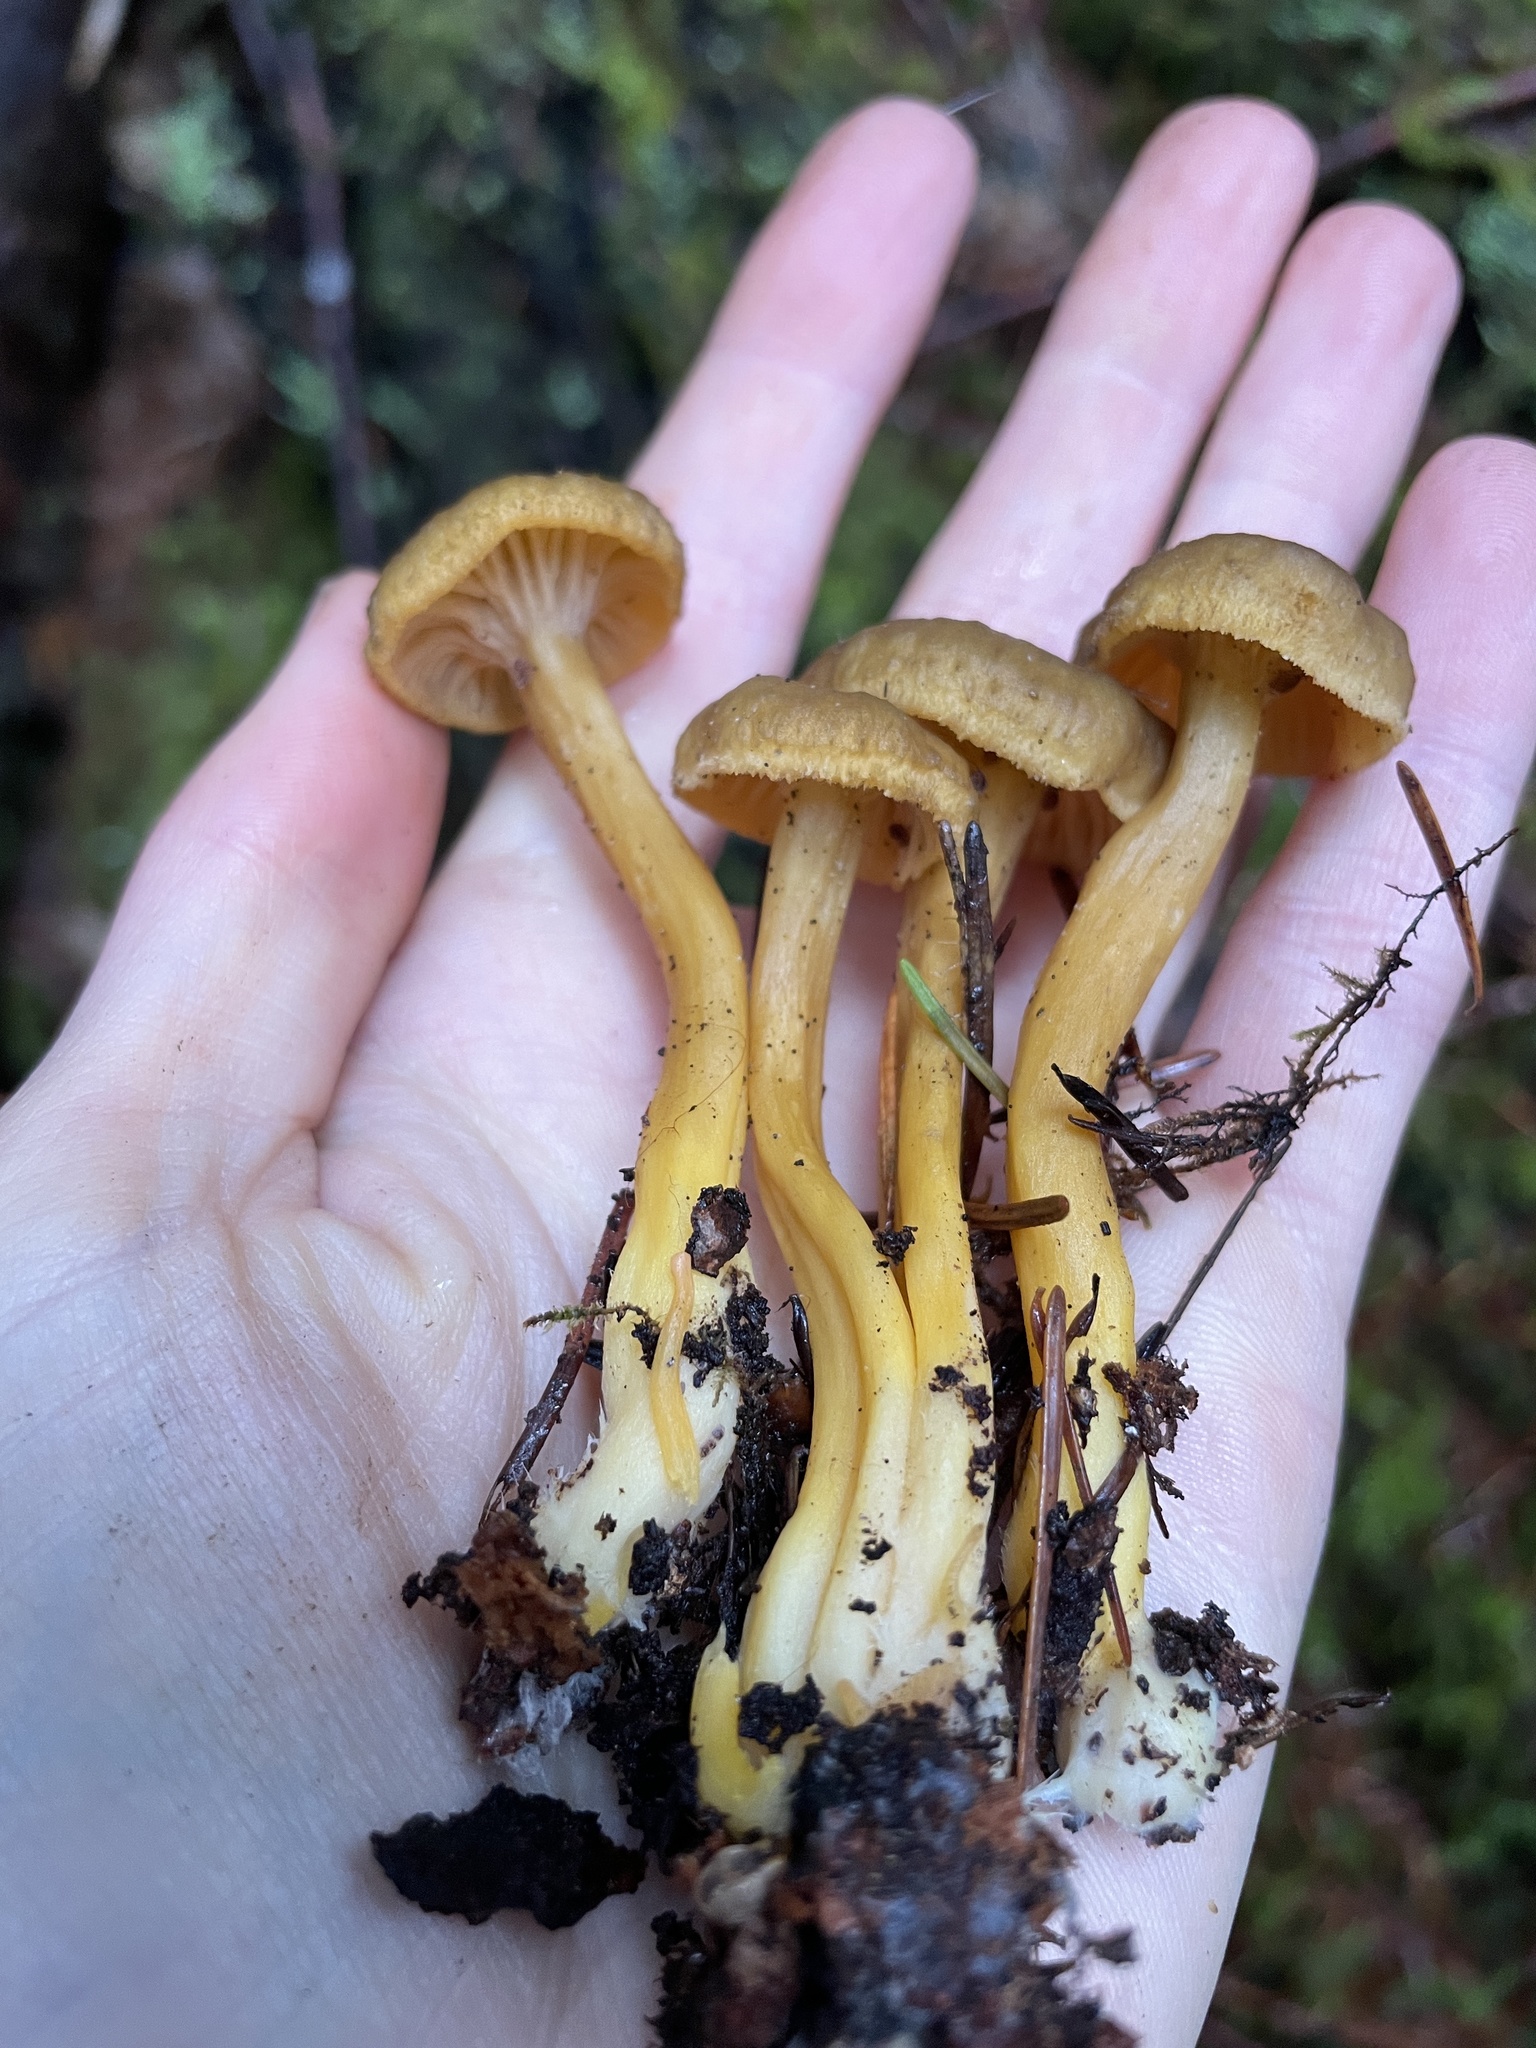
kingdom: Fungi
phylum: Basidiomycota
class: Agaricomycetes
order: Cantharellales
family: Hydnaceae
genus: Craterellus
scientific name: Craterellus tubaeformis
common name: Yellowfoot
